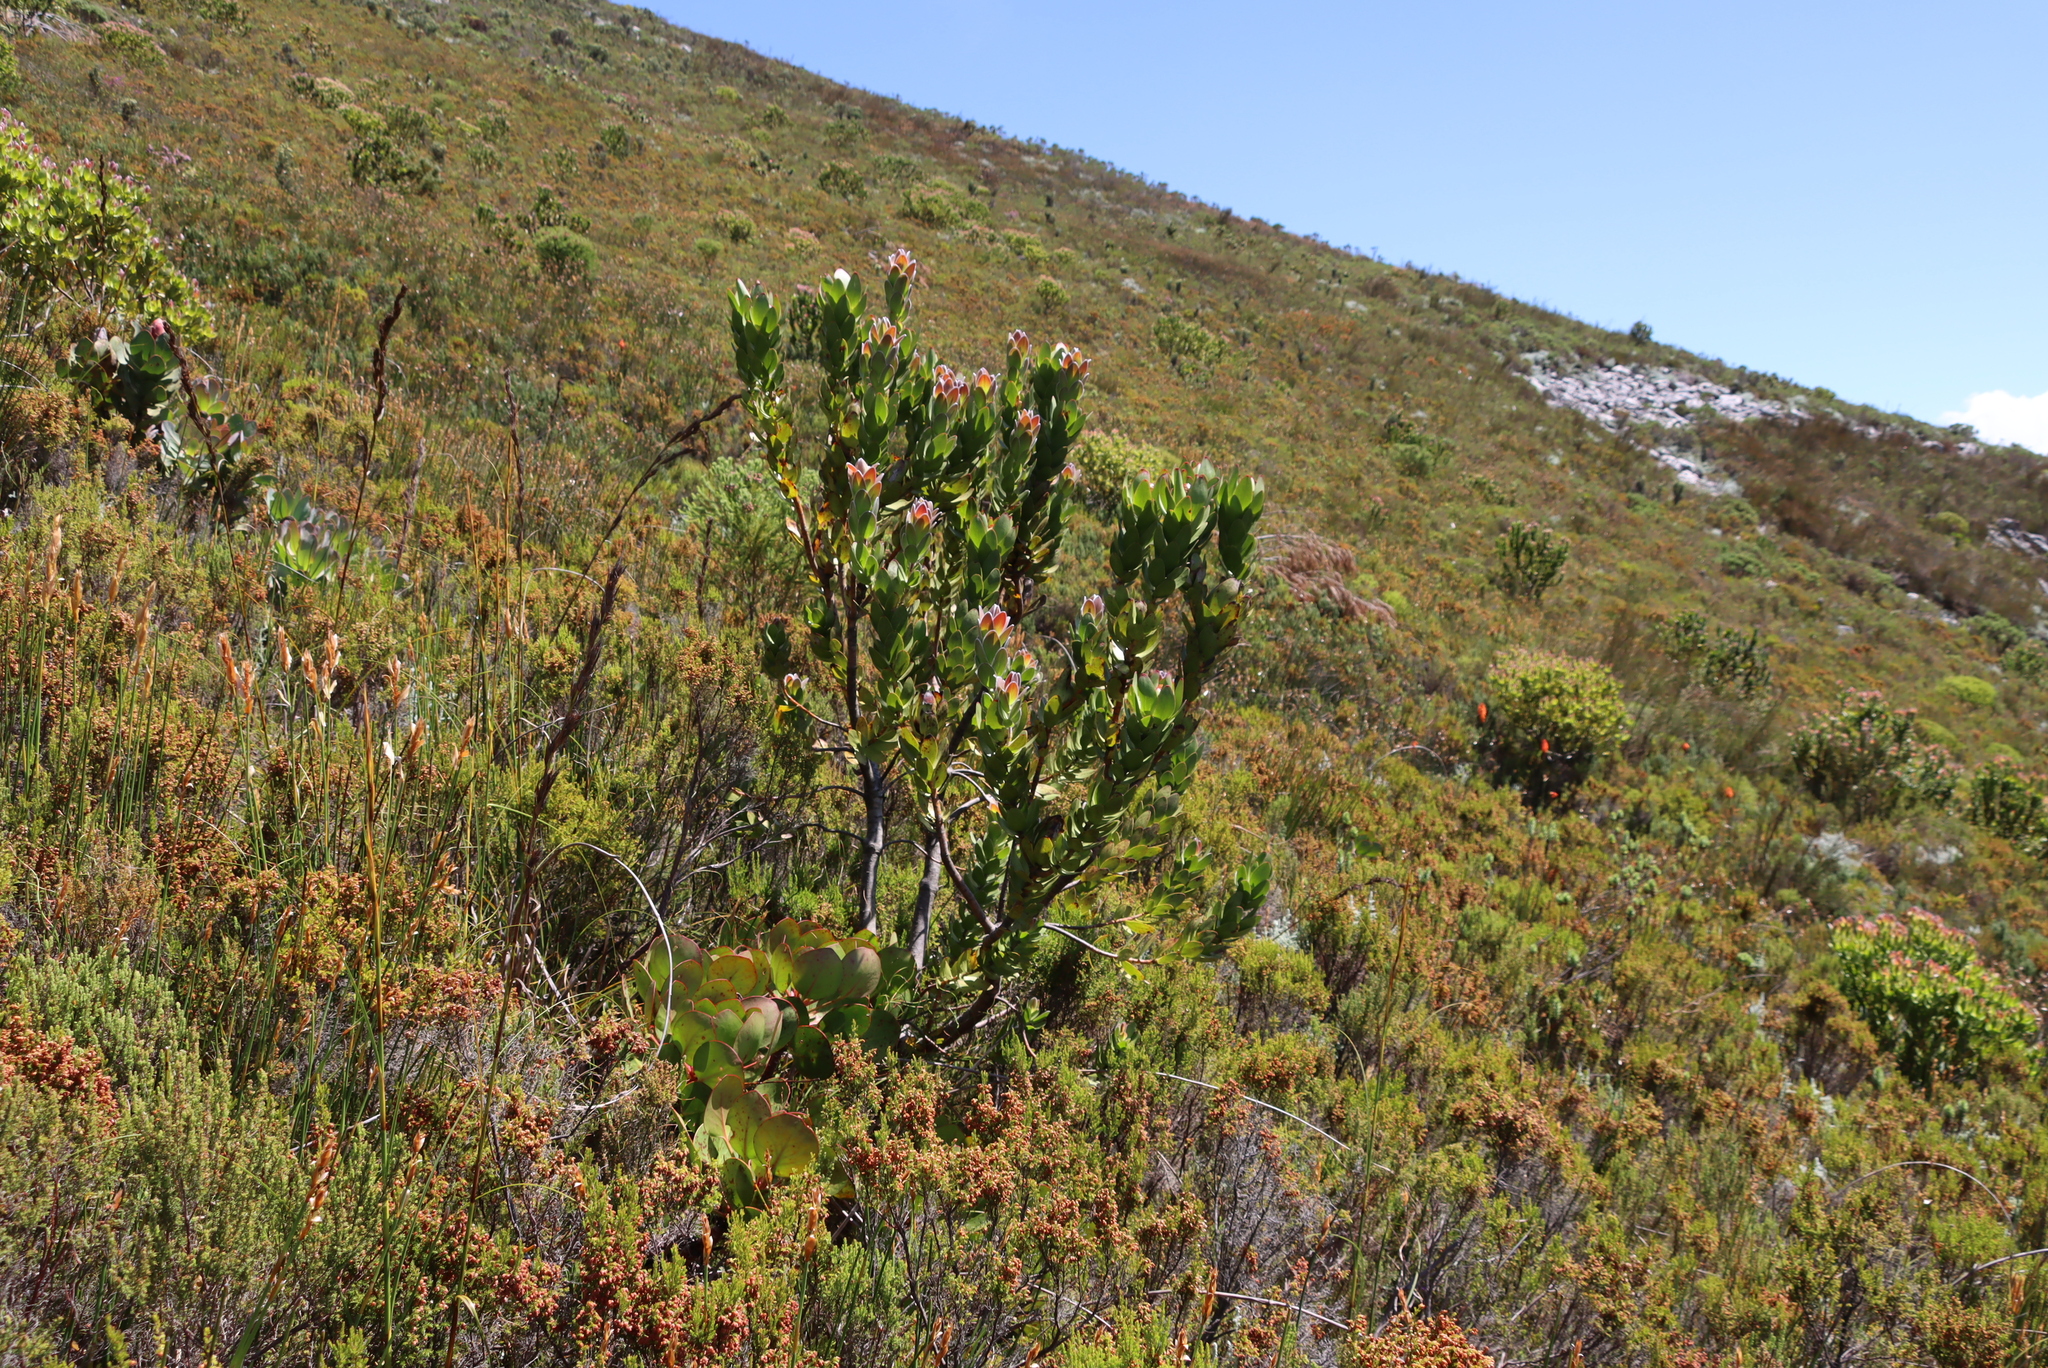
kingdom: Plantae
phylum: Tracheophyta
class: Magnoliopsida
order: Proteales
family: Proteaceae
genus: Leucadendron
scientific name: Leucadendron gandogeri
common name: Broad-leaf conebush
